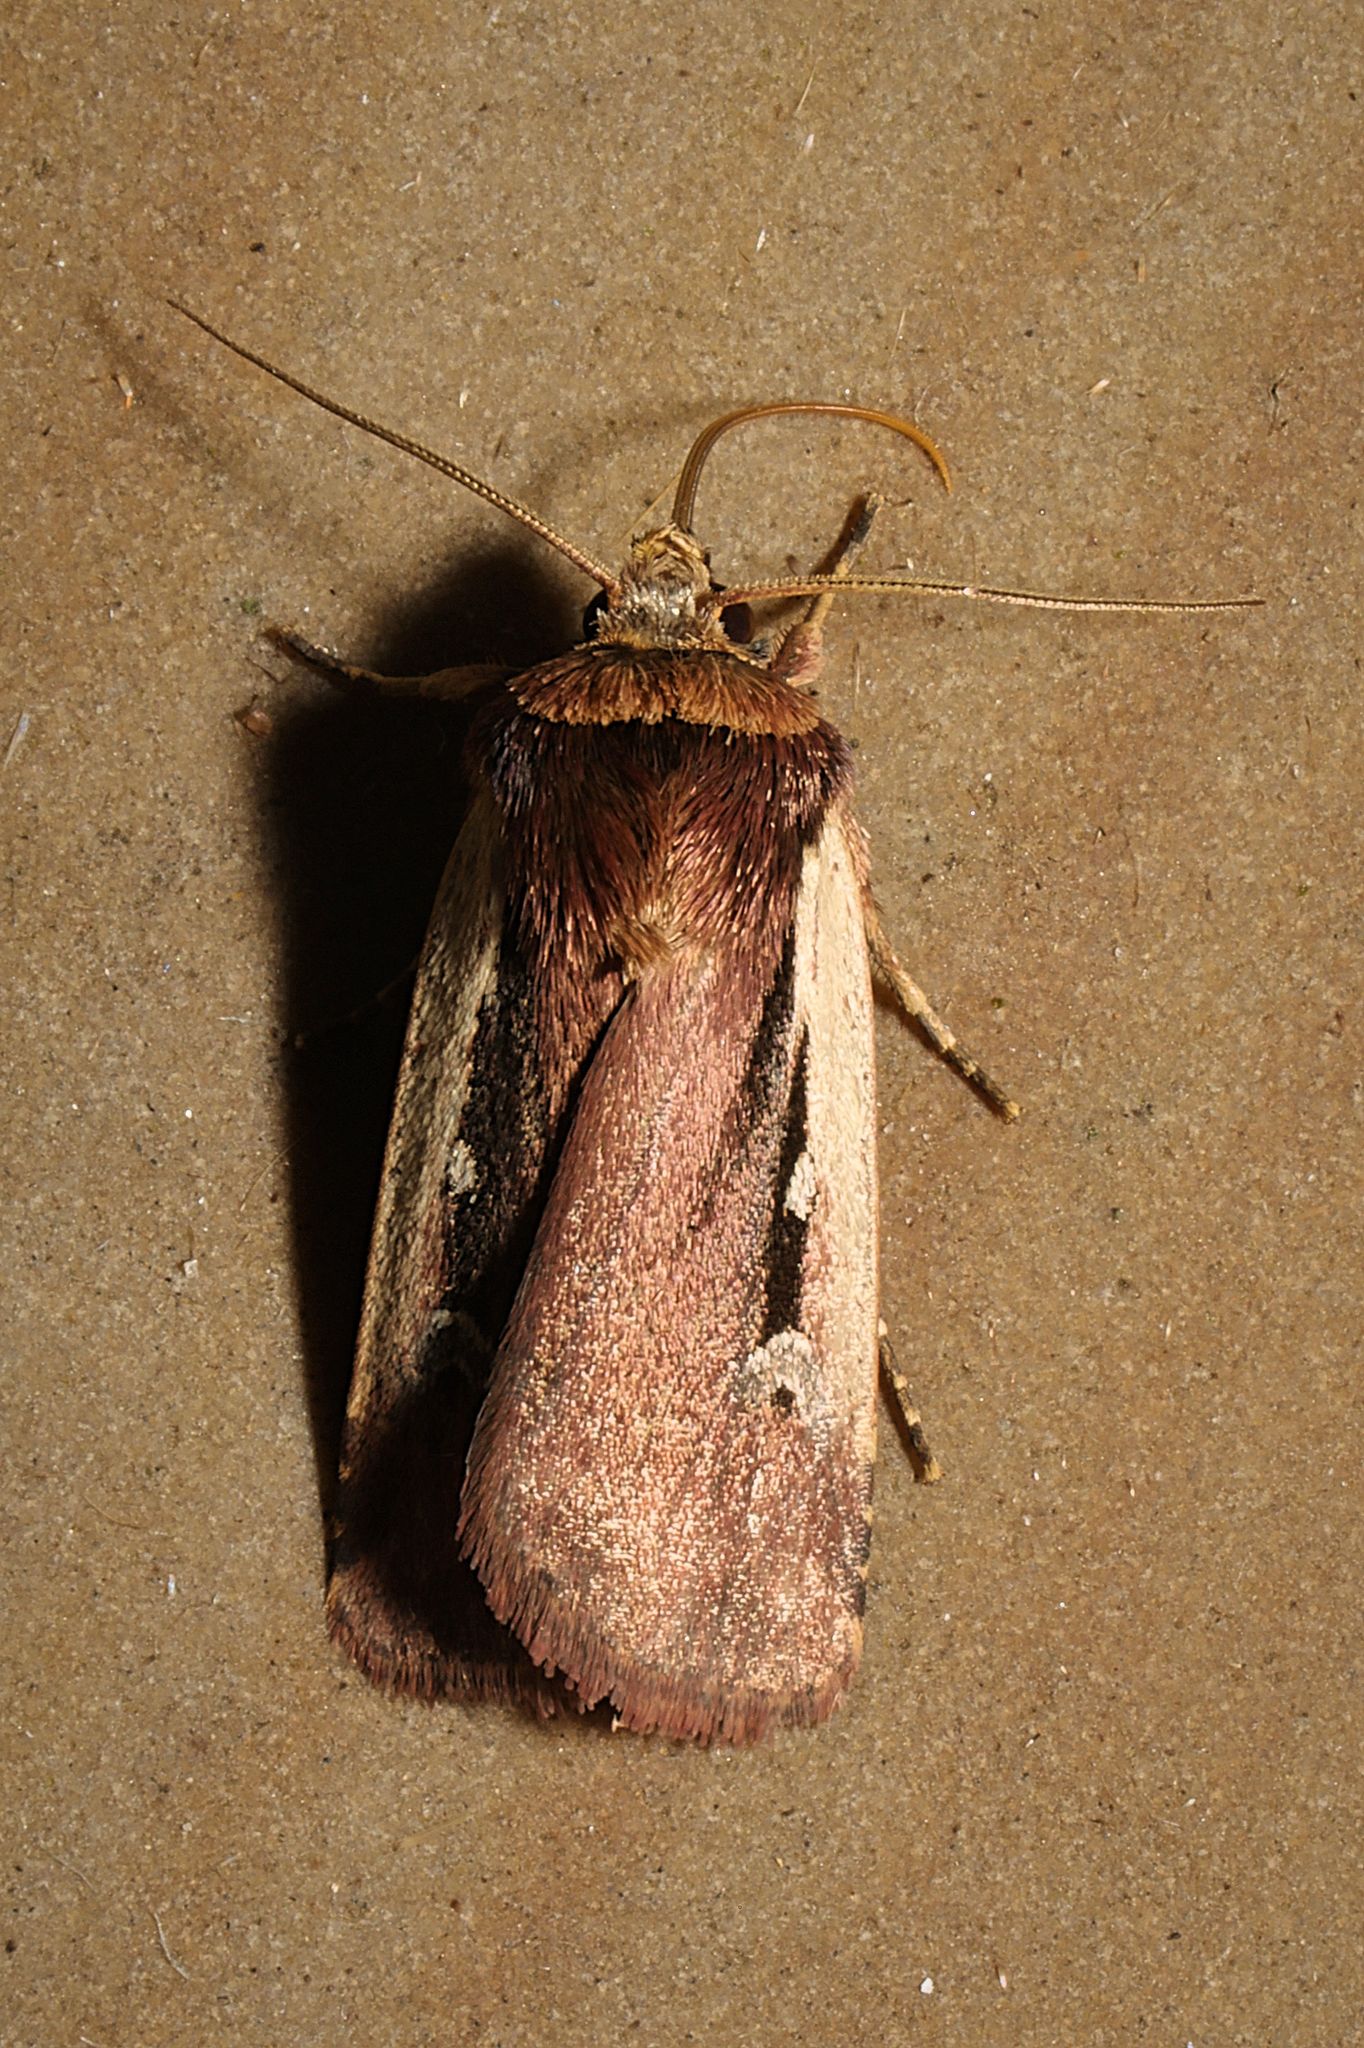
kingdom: Animalia
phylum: Arthropoda
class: Insecta
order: Lepidoptera
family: Noctuidae
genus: Ochropleura
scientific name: Ochropleura plecta
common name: Flame shoulder
